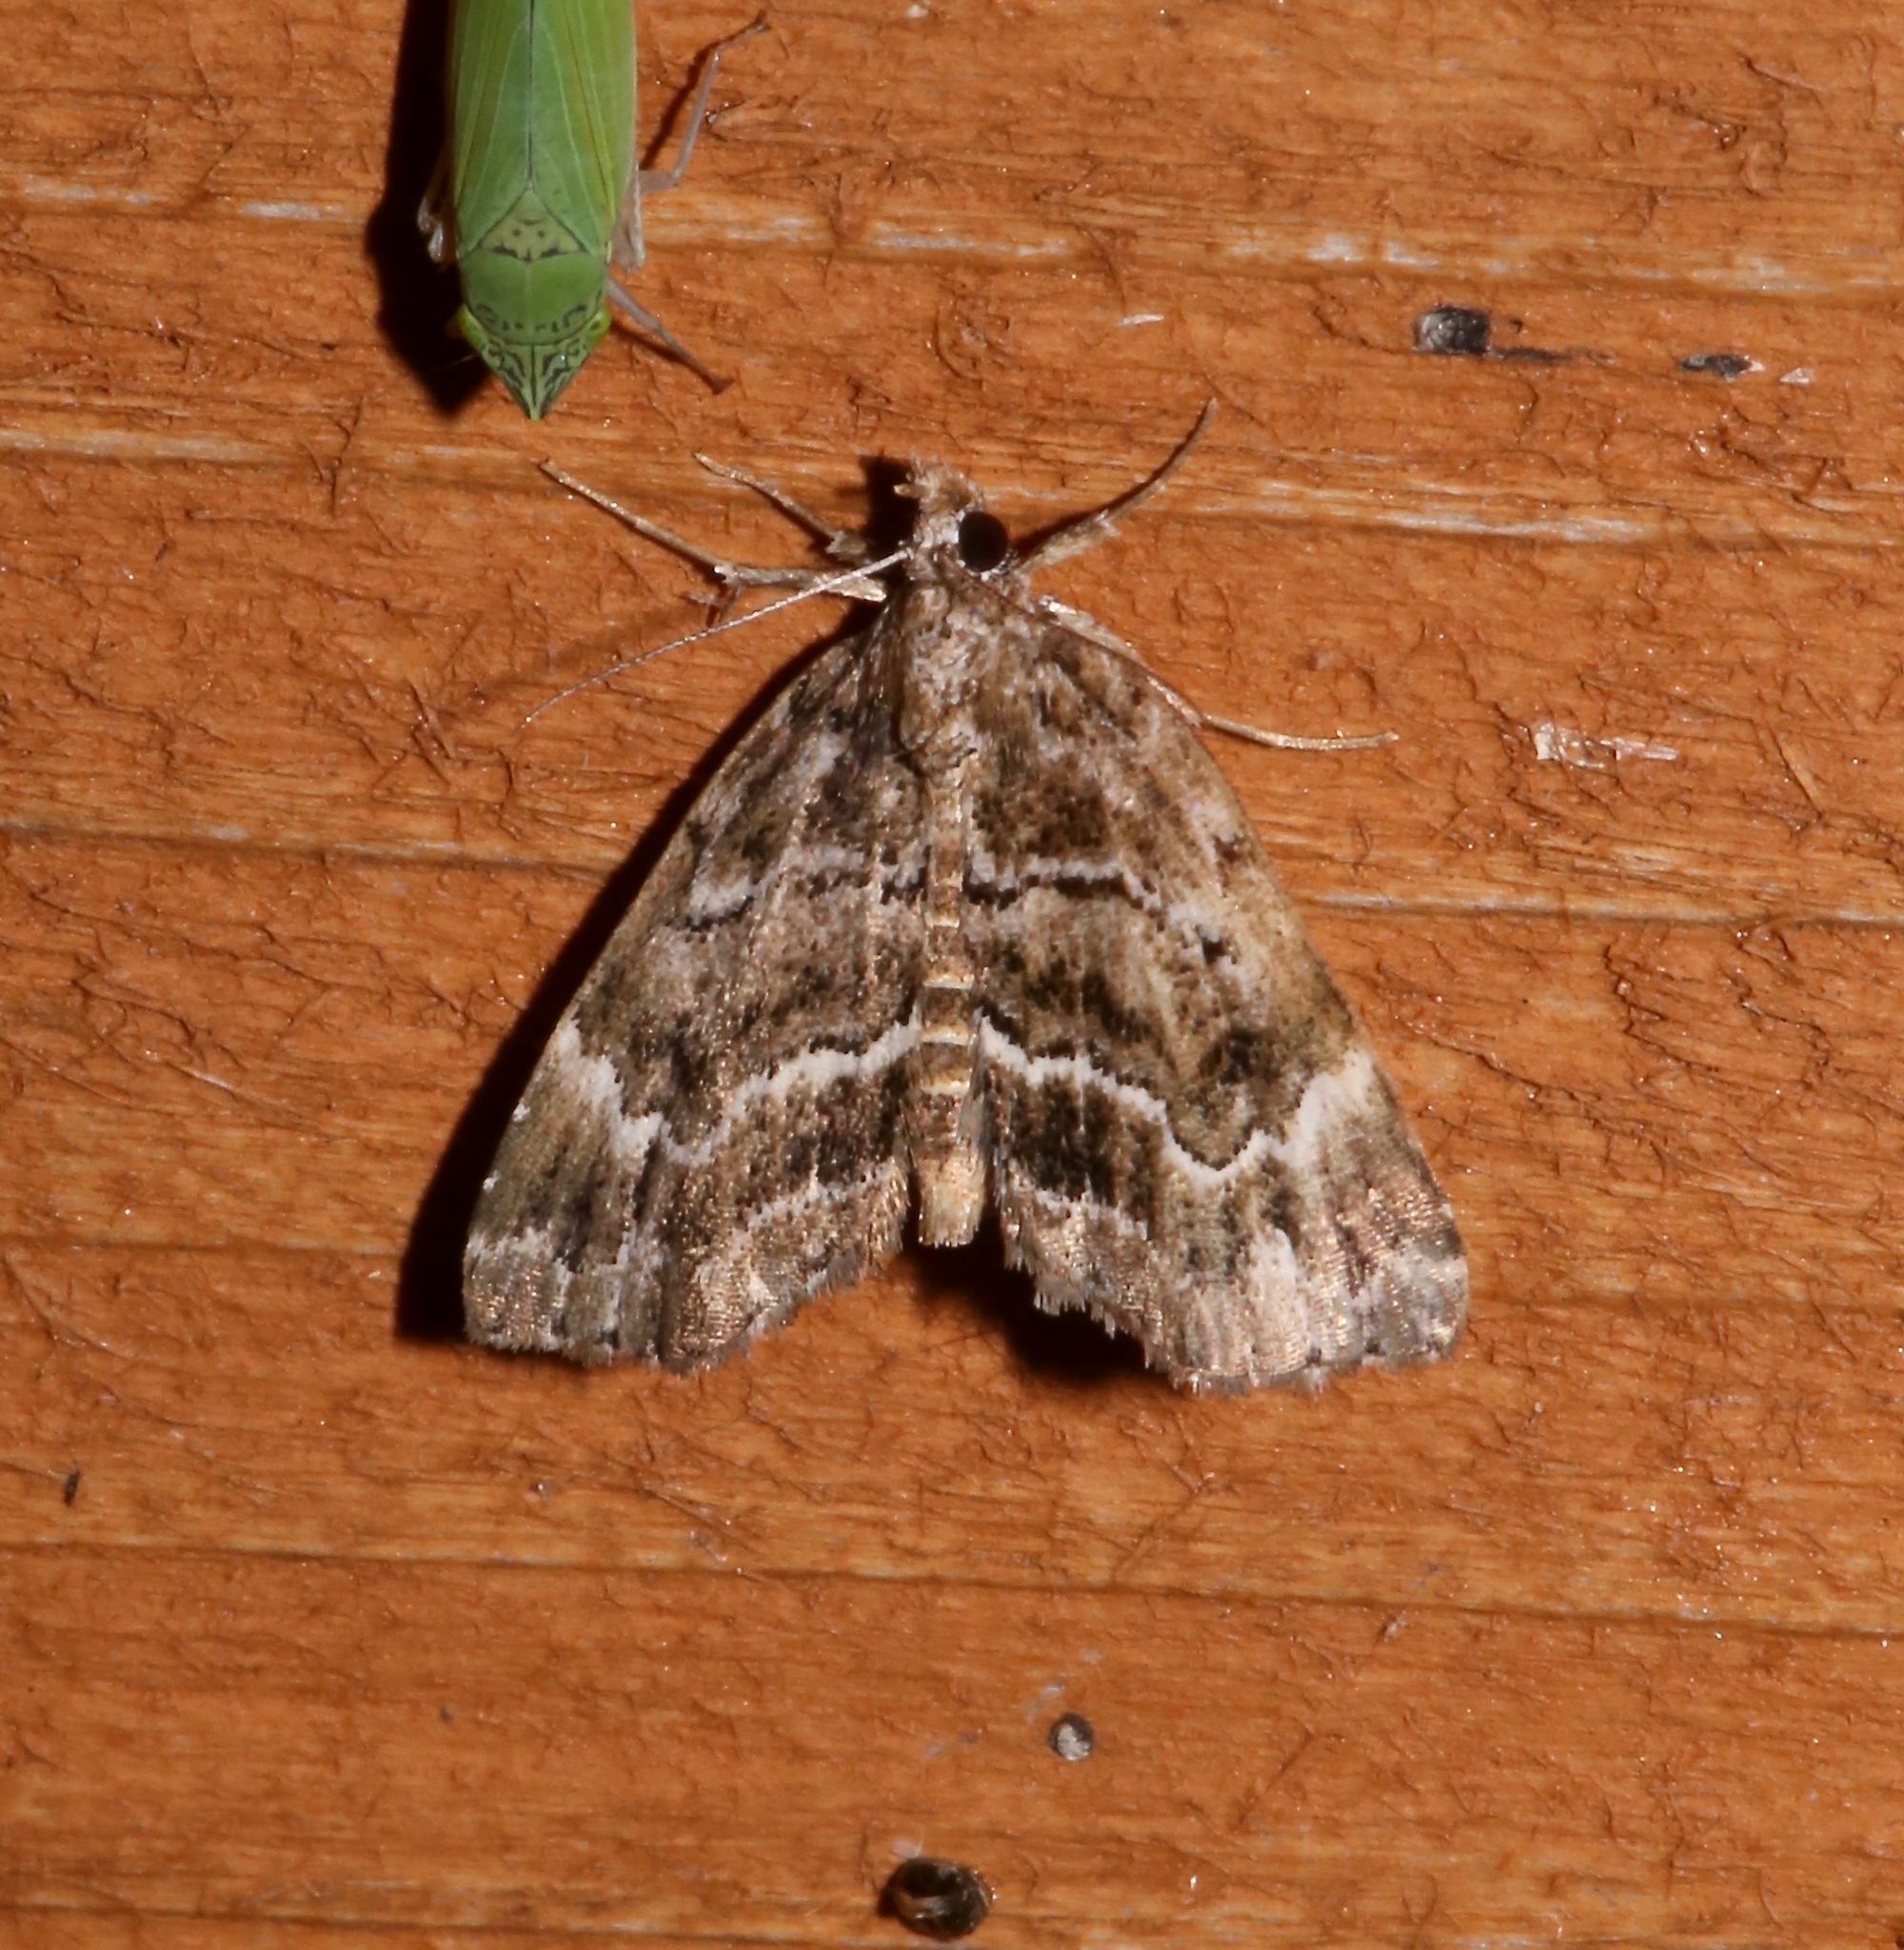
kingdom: Animalia
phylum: Arthropoda
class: Insecta
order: Lepidoptera
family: Erebidae
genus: Cutina
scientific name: Cutina arcuata
